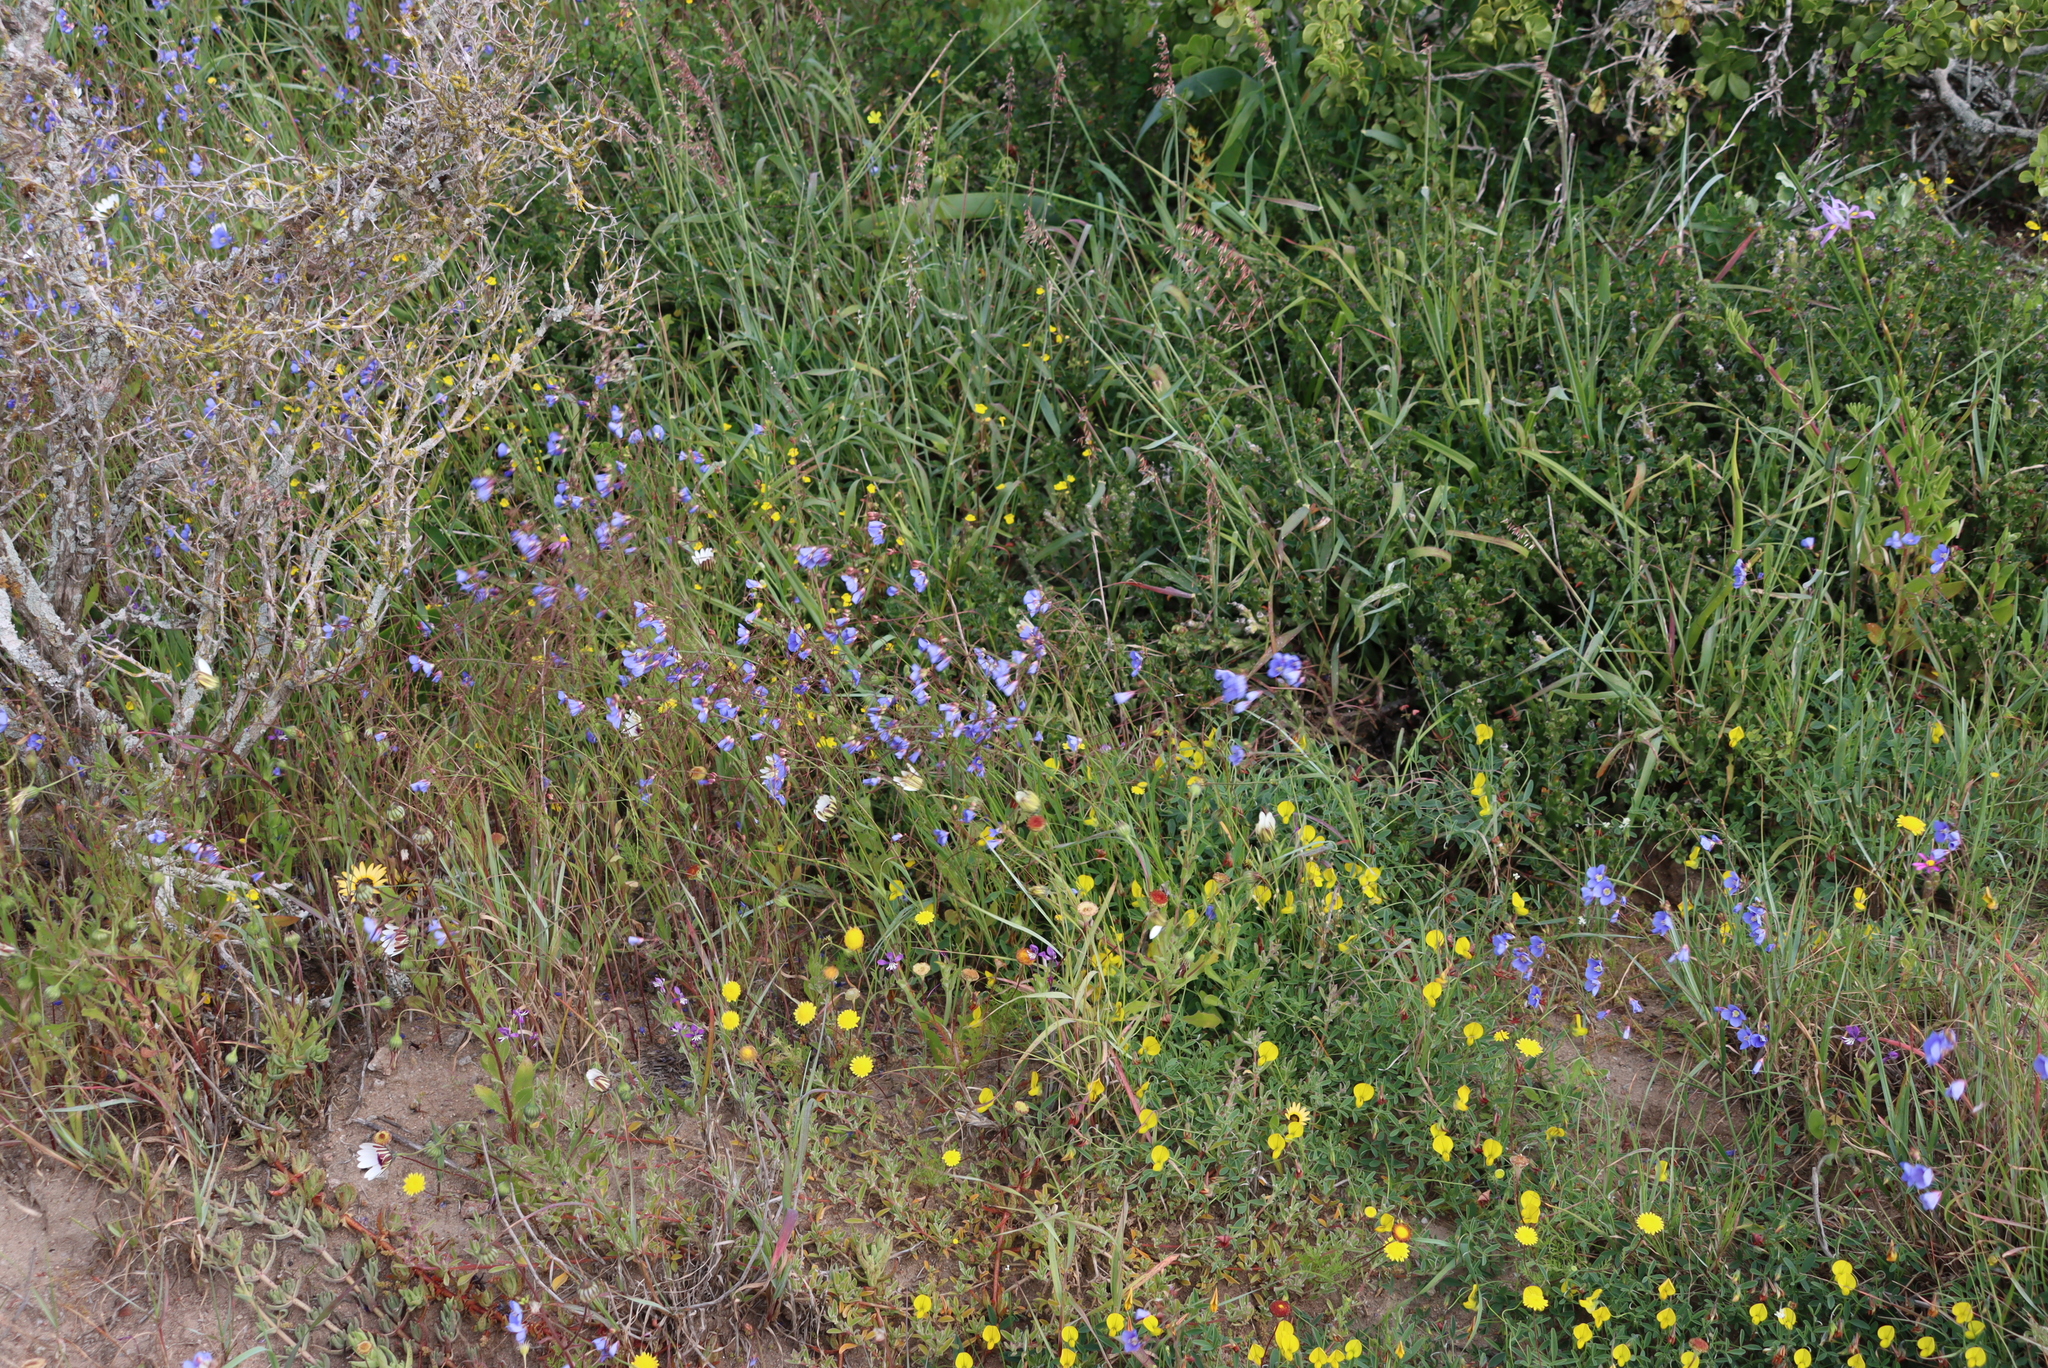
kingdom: Plantae
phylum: Tracheophyta
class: Magnoliopsida
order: Brassicales
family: Brassicaceae
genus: Heliophila
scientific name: Heliophila coronopifolia
